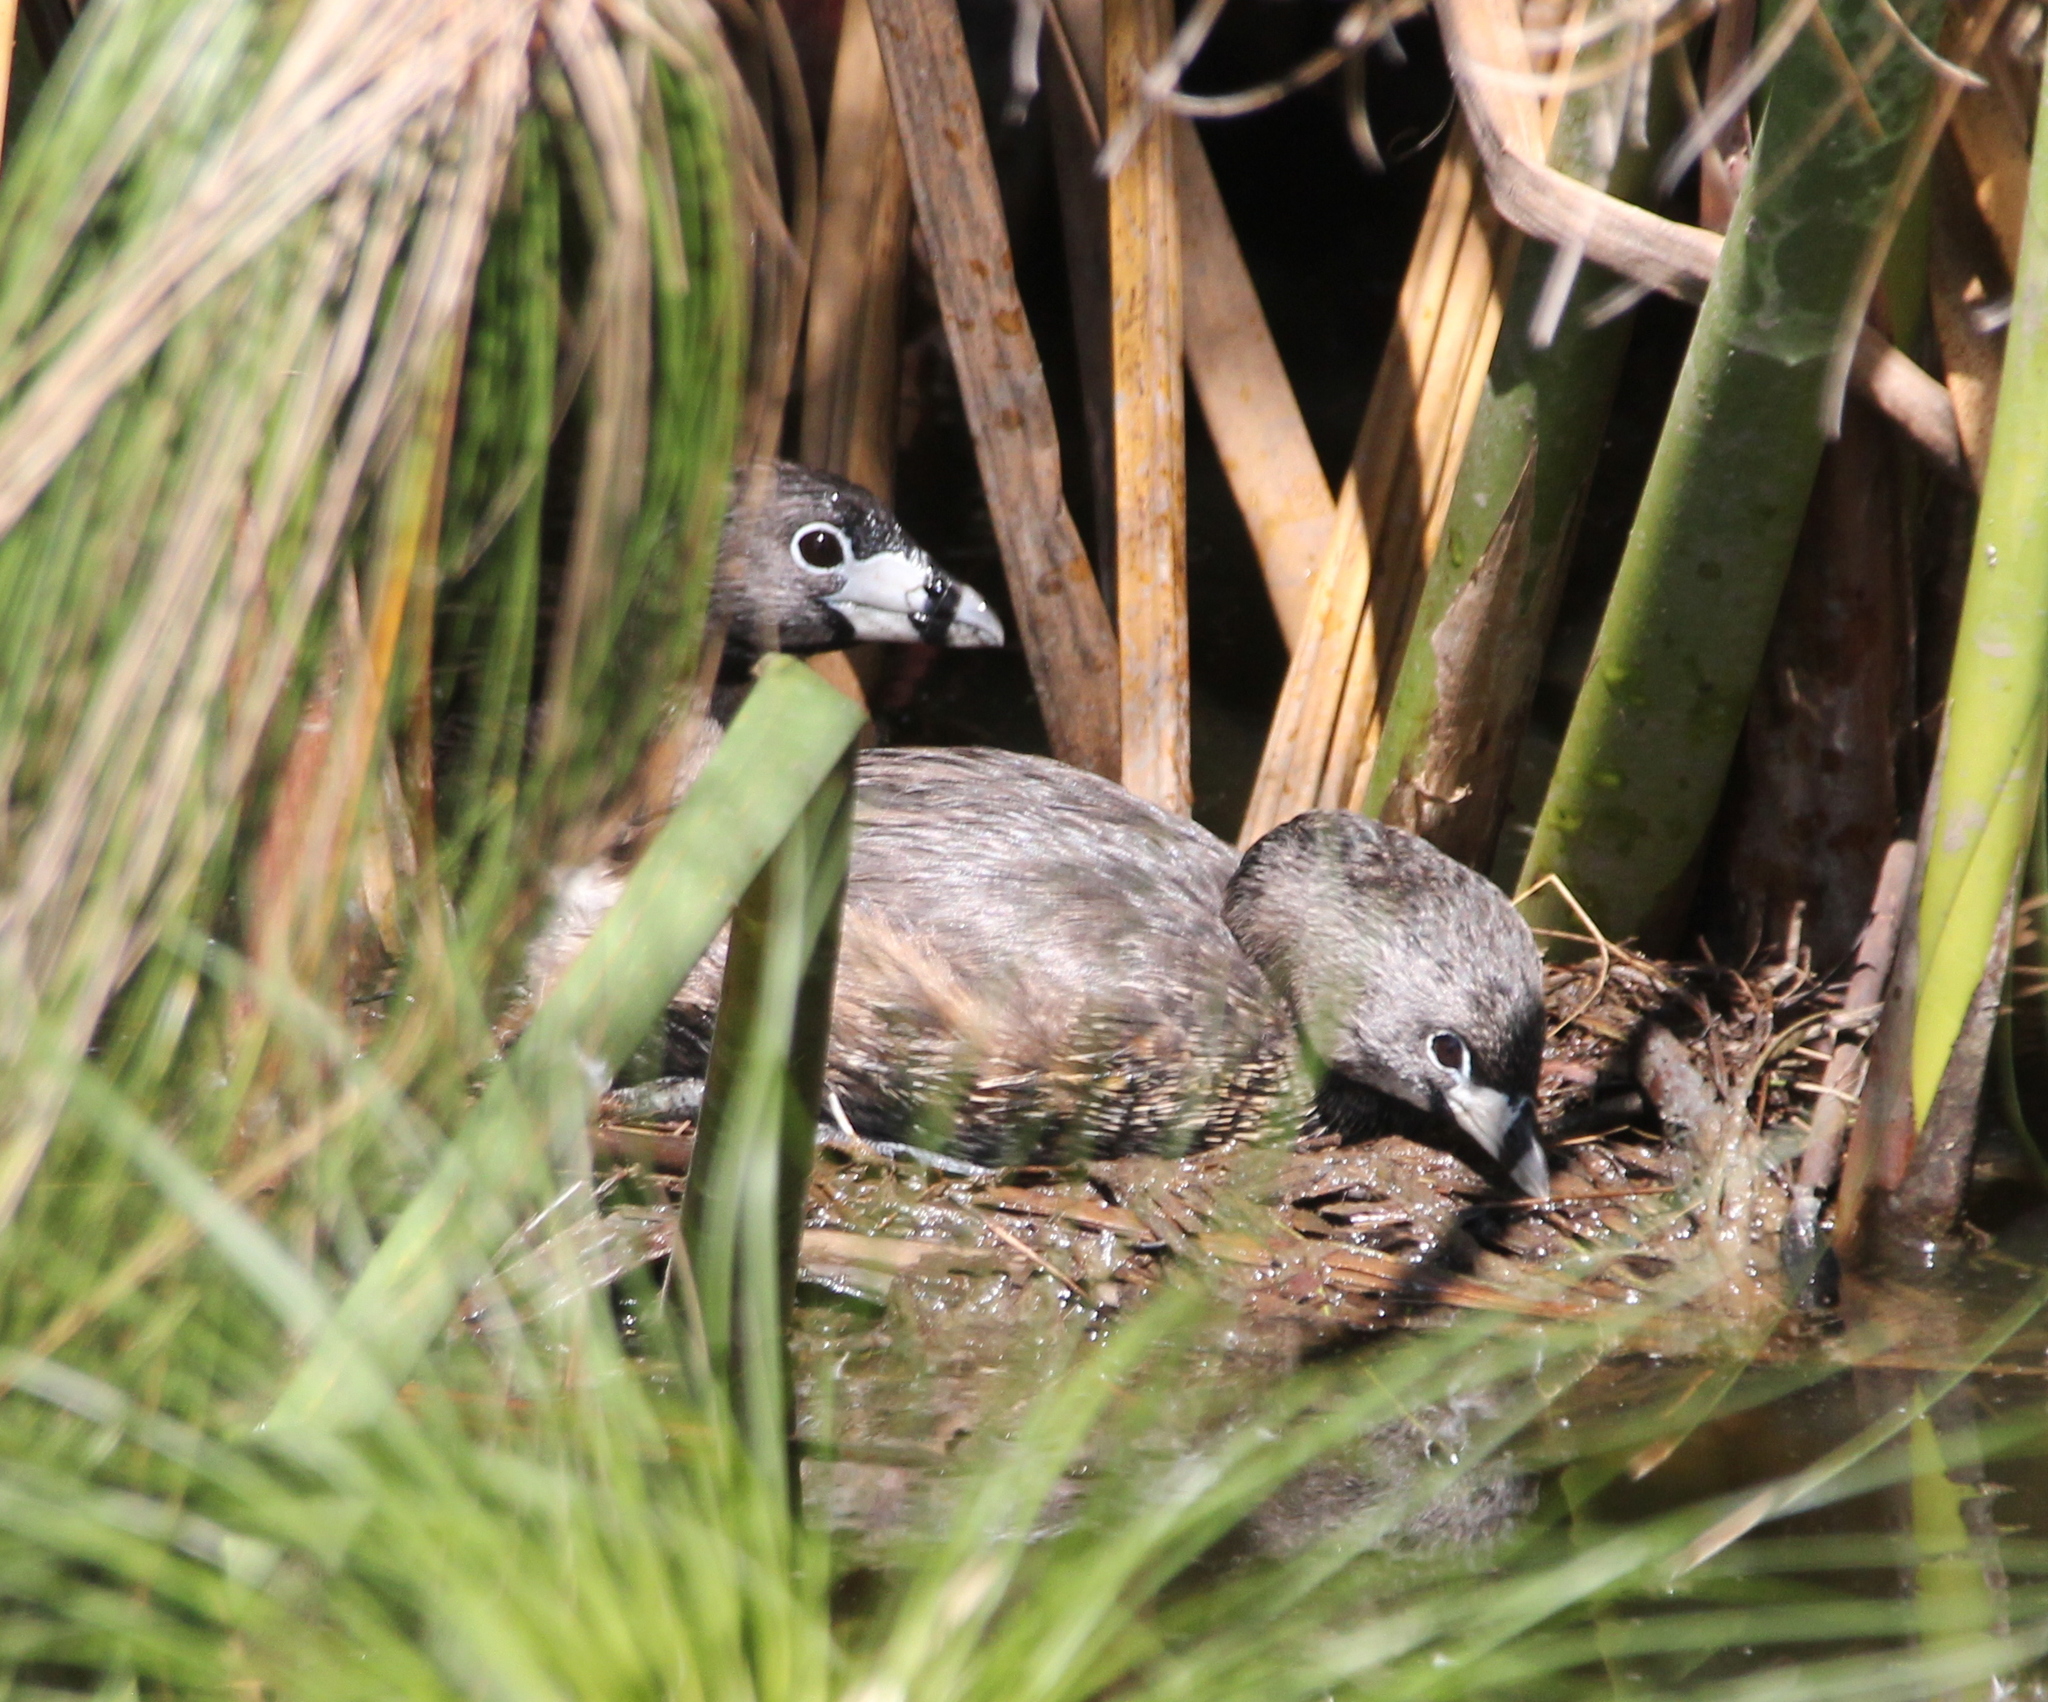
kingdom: Animalia
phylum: Chordata
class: Aves
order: Podicipediformes
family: Podicipedidae
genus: Podilymbus
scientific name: Podilymbus podiceps
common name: Pied-billed grebe
